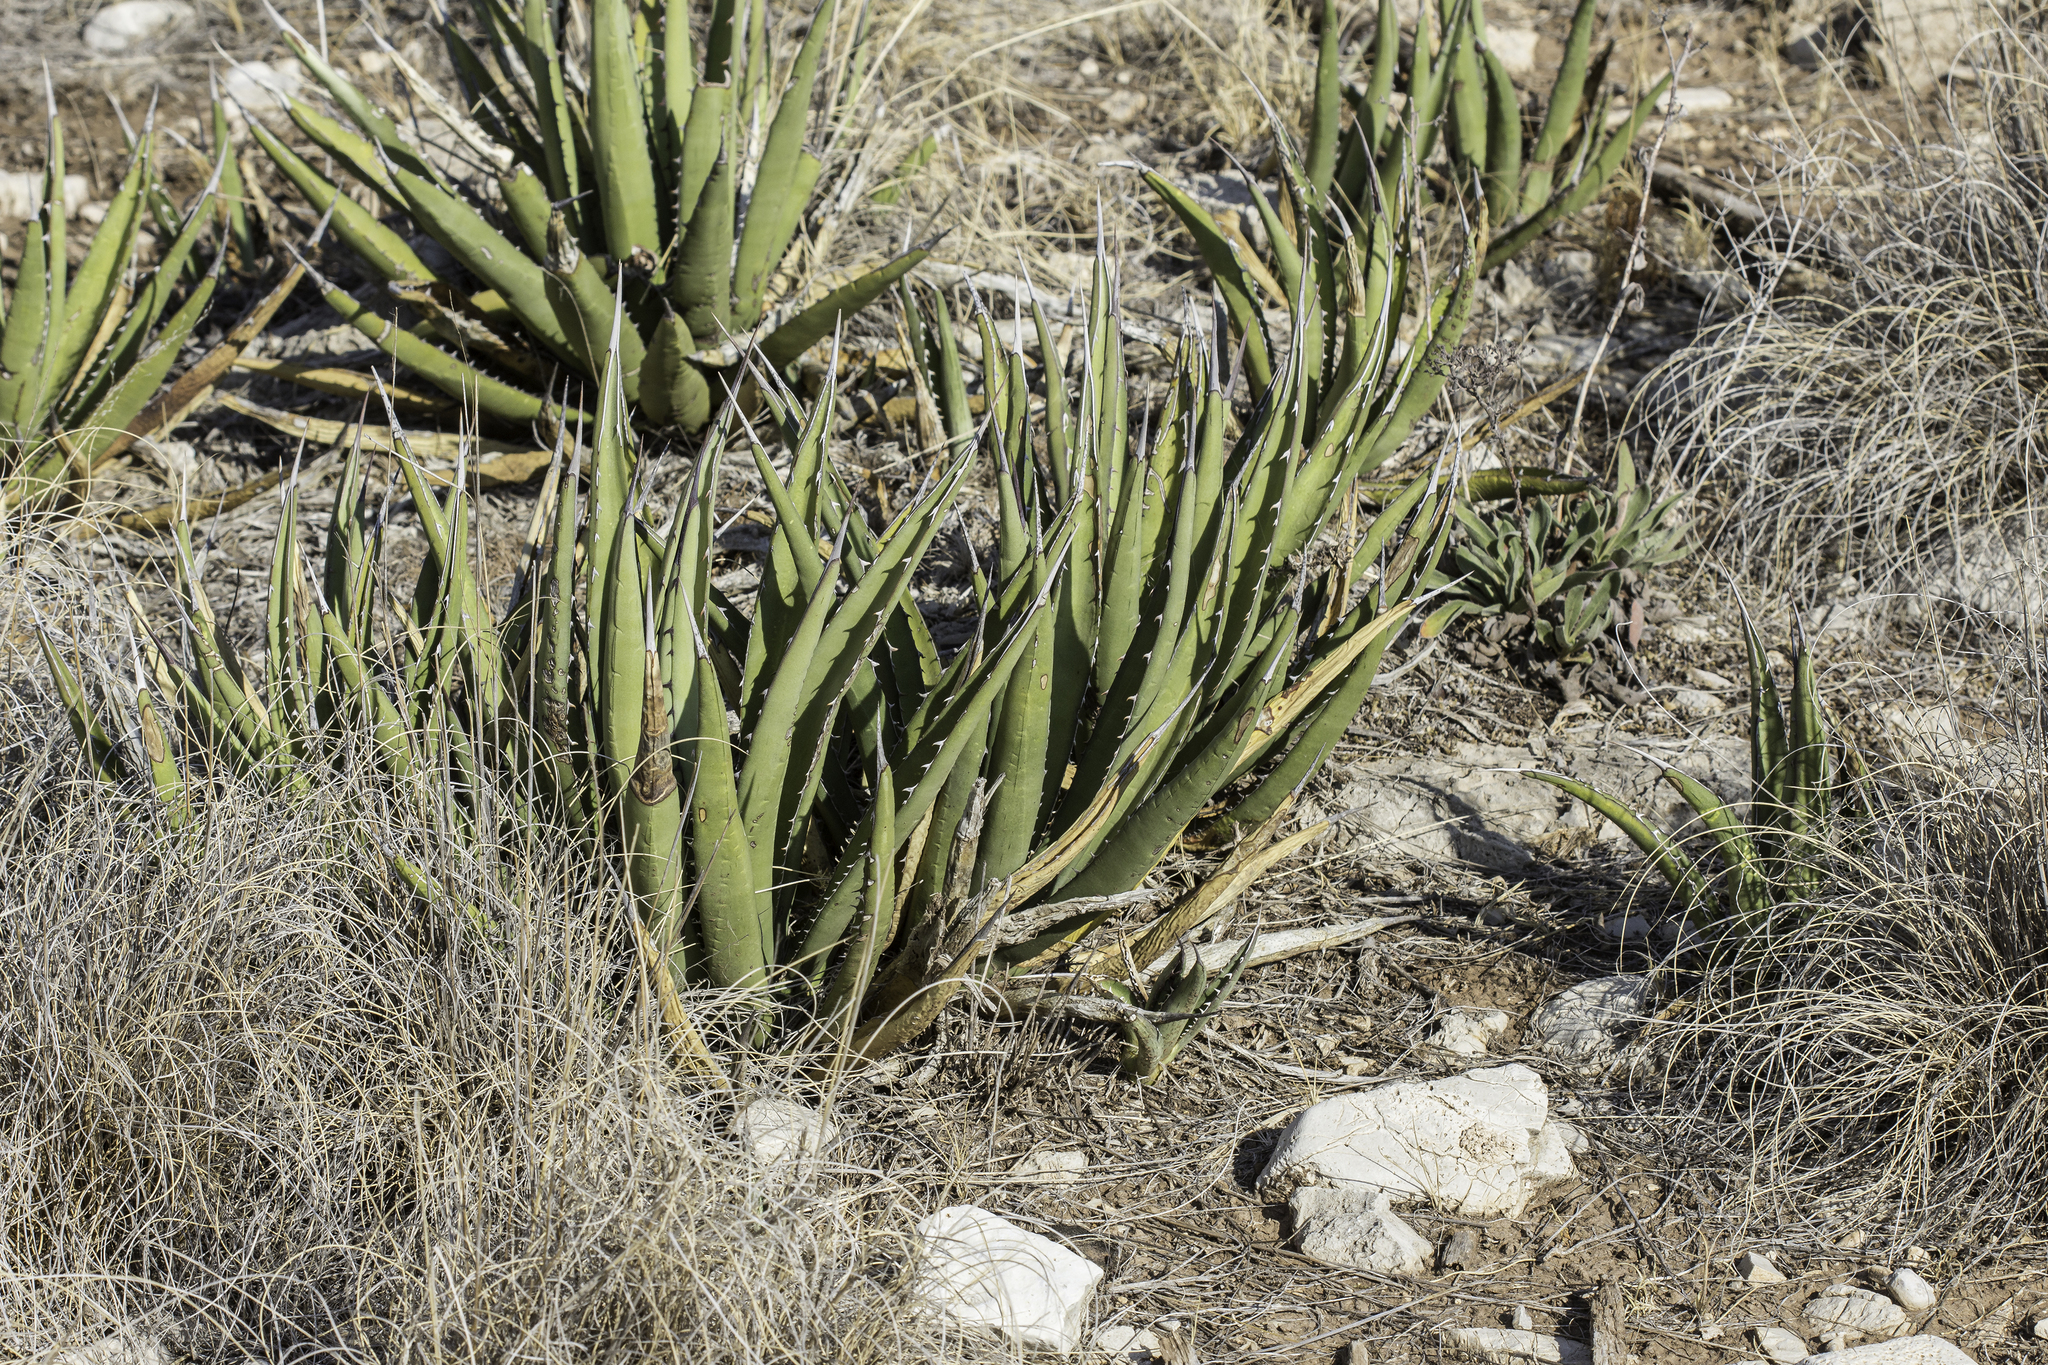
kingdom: Plantae
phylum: Tracheophyta
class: Liliopsida
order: Asparagales
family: Asparagaceae
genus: Agave
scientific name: Agave lechuguilla
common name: Lecheguilla agave
